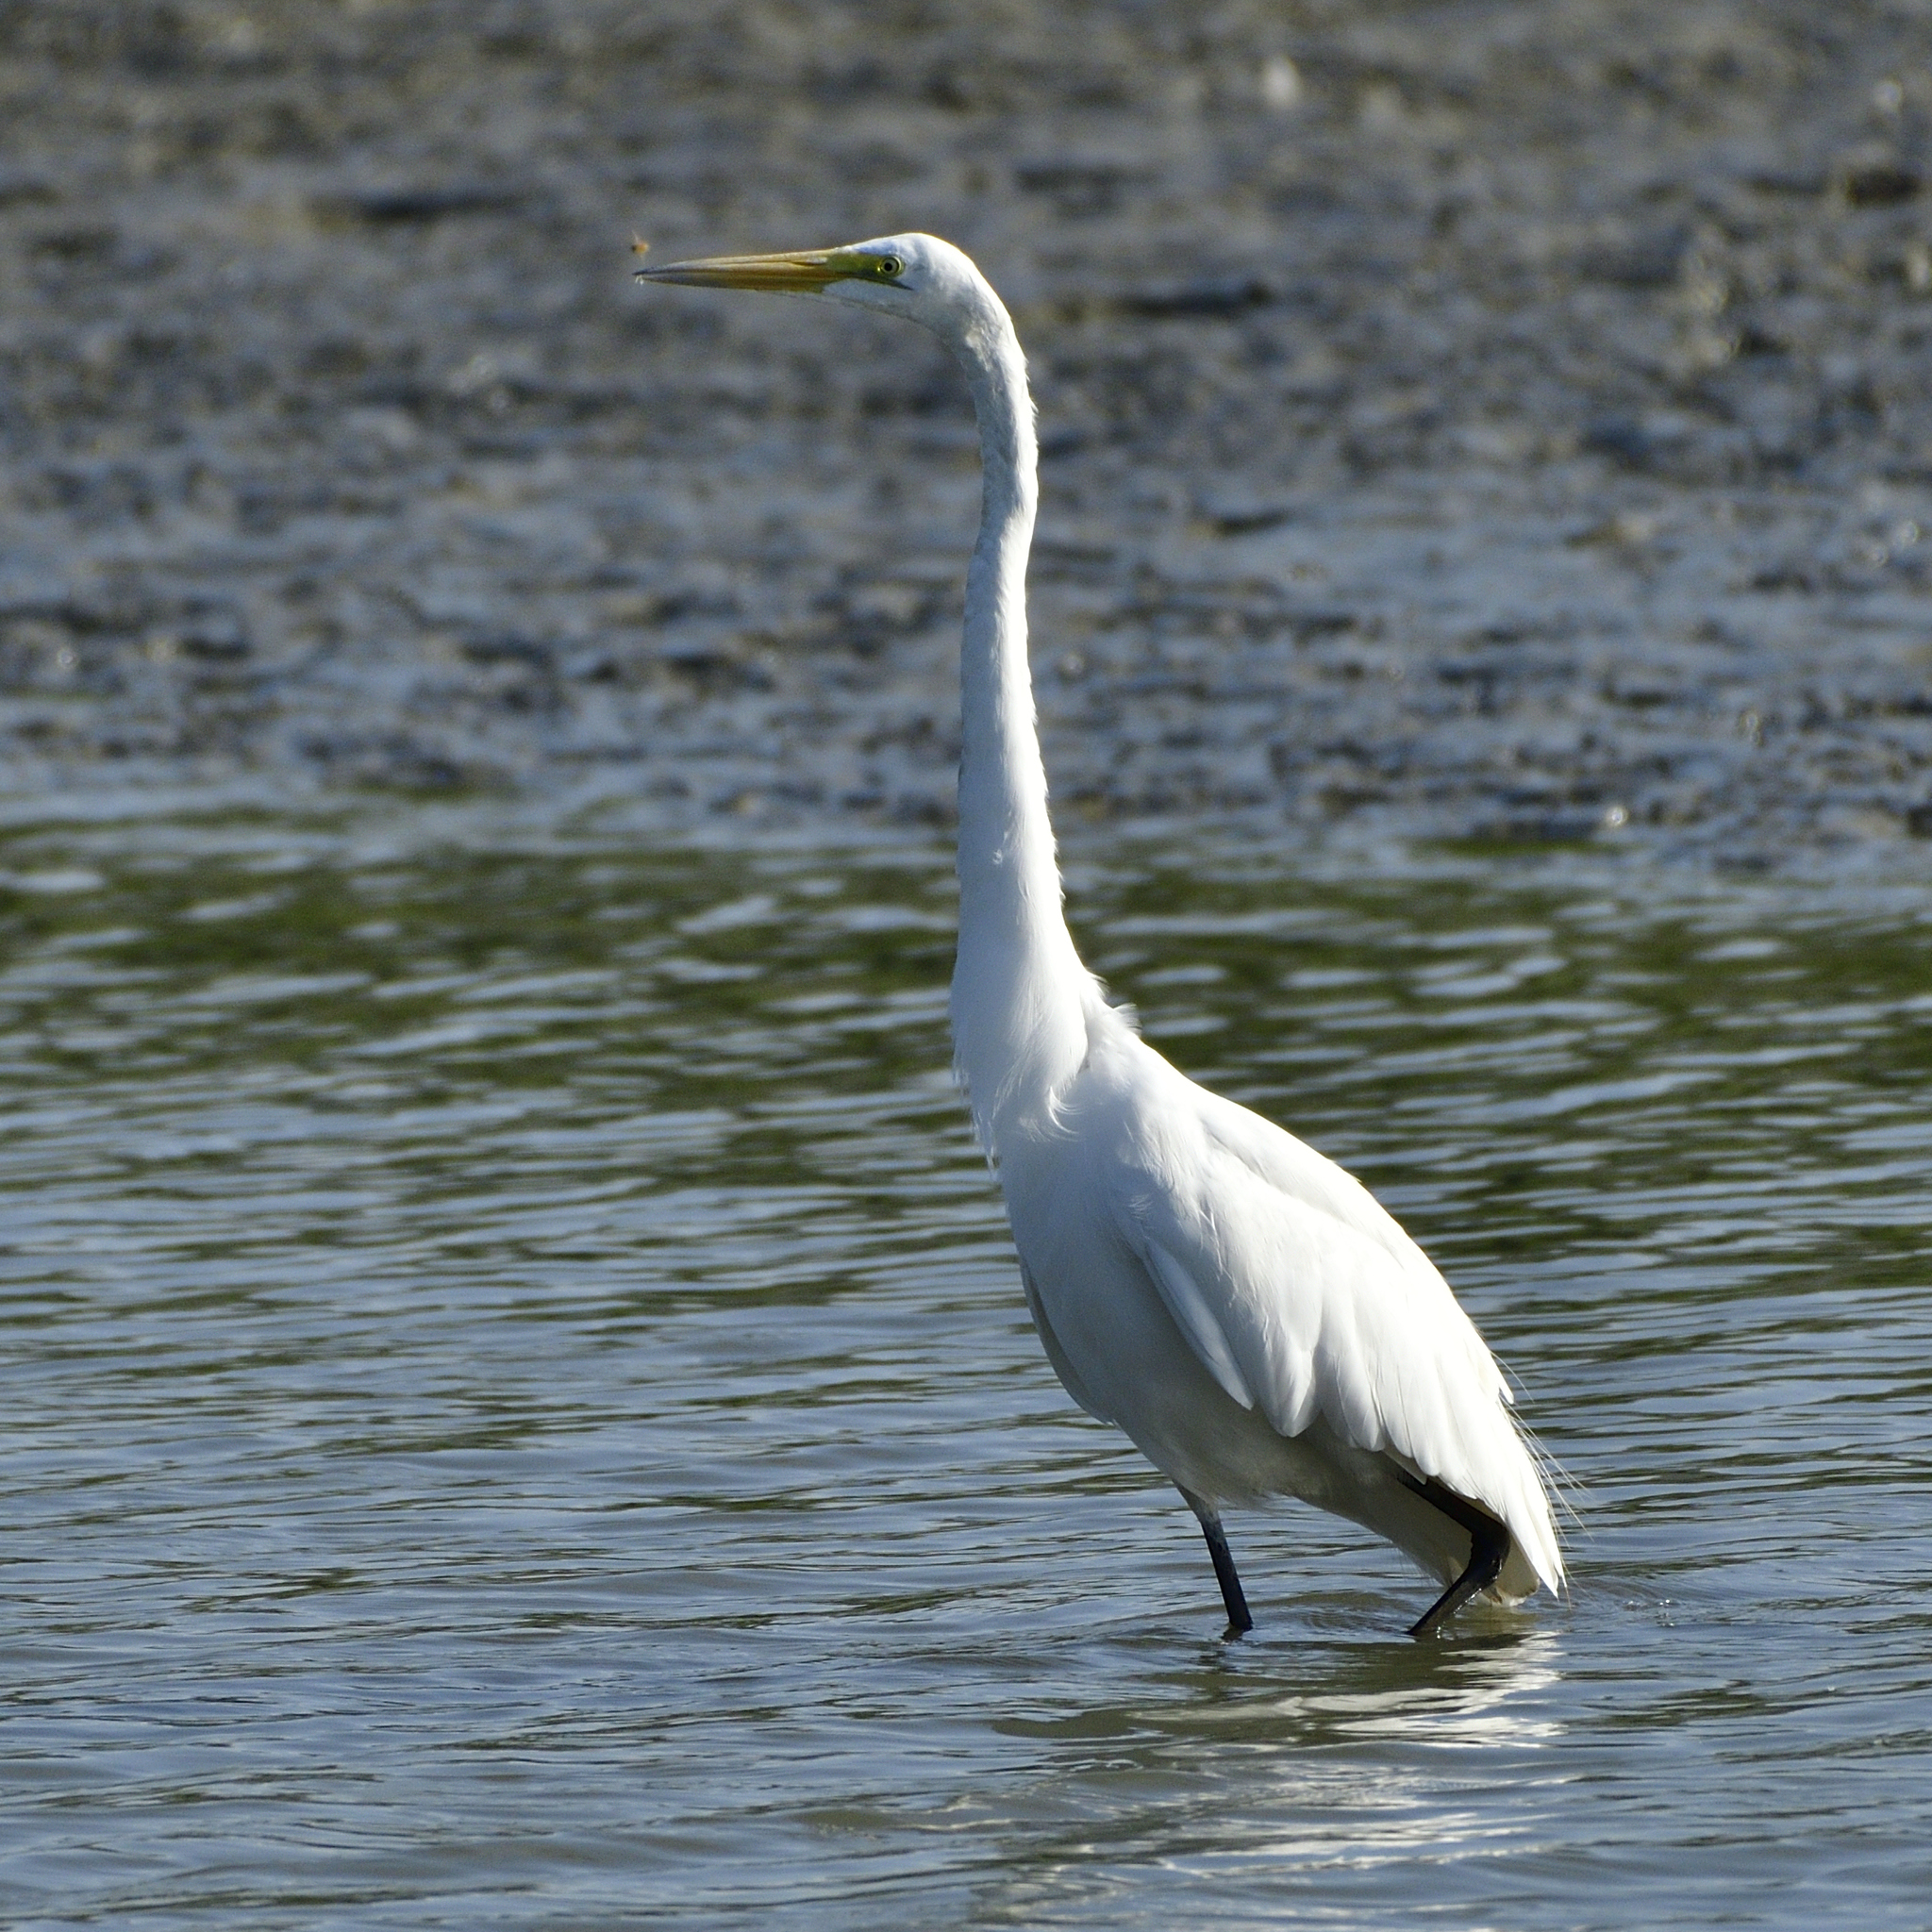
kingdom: Animalia
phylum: Chordata
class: Aves
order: Pelecaniformes
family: Ardeidae
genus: Ardea
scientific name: Ardea alba
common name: Great egret
